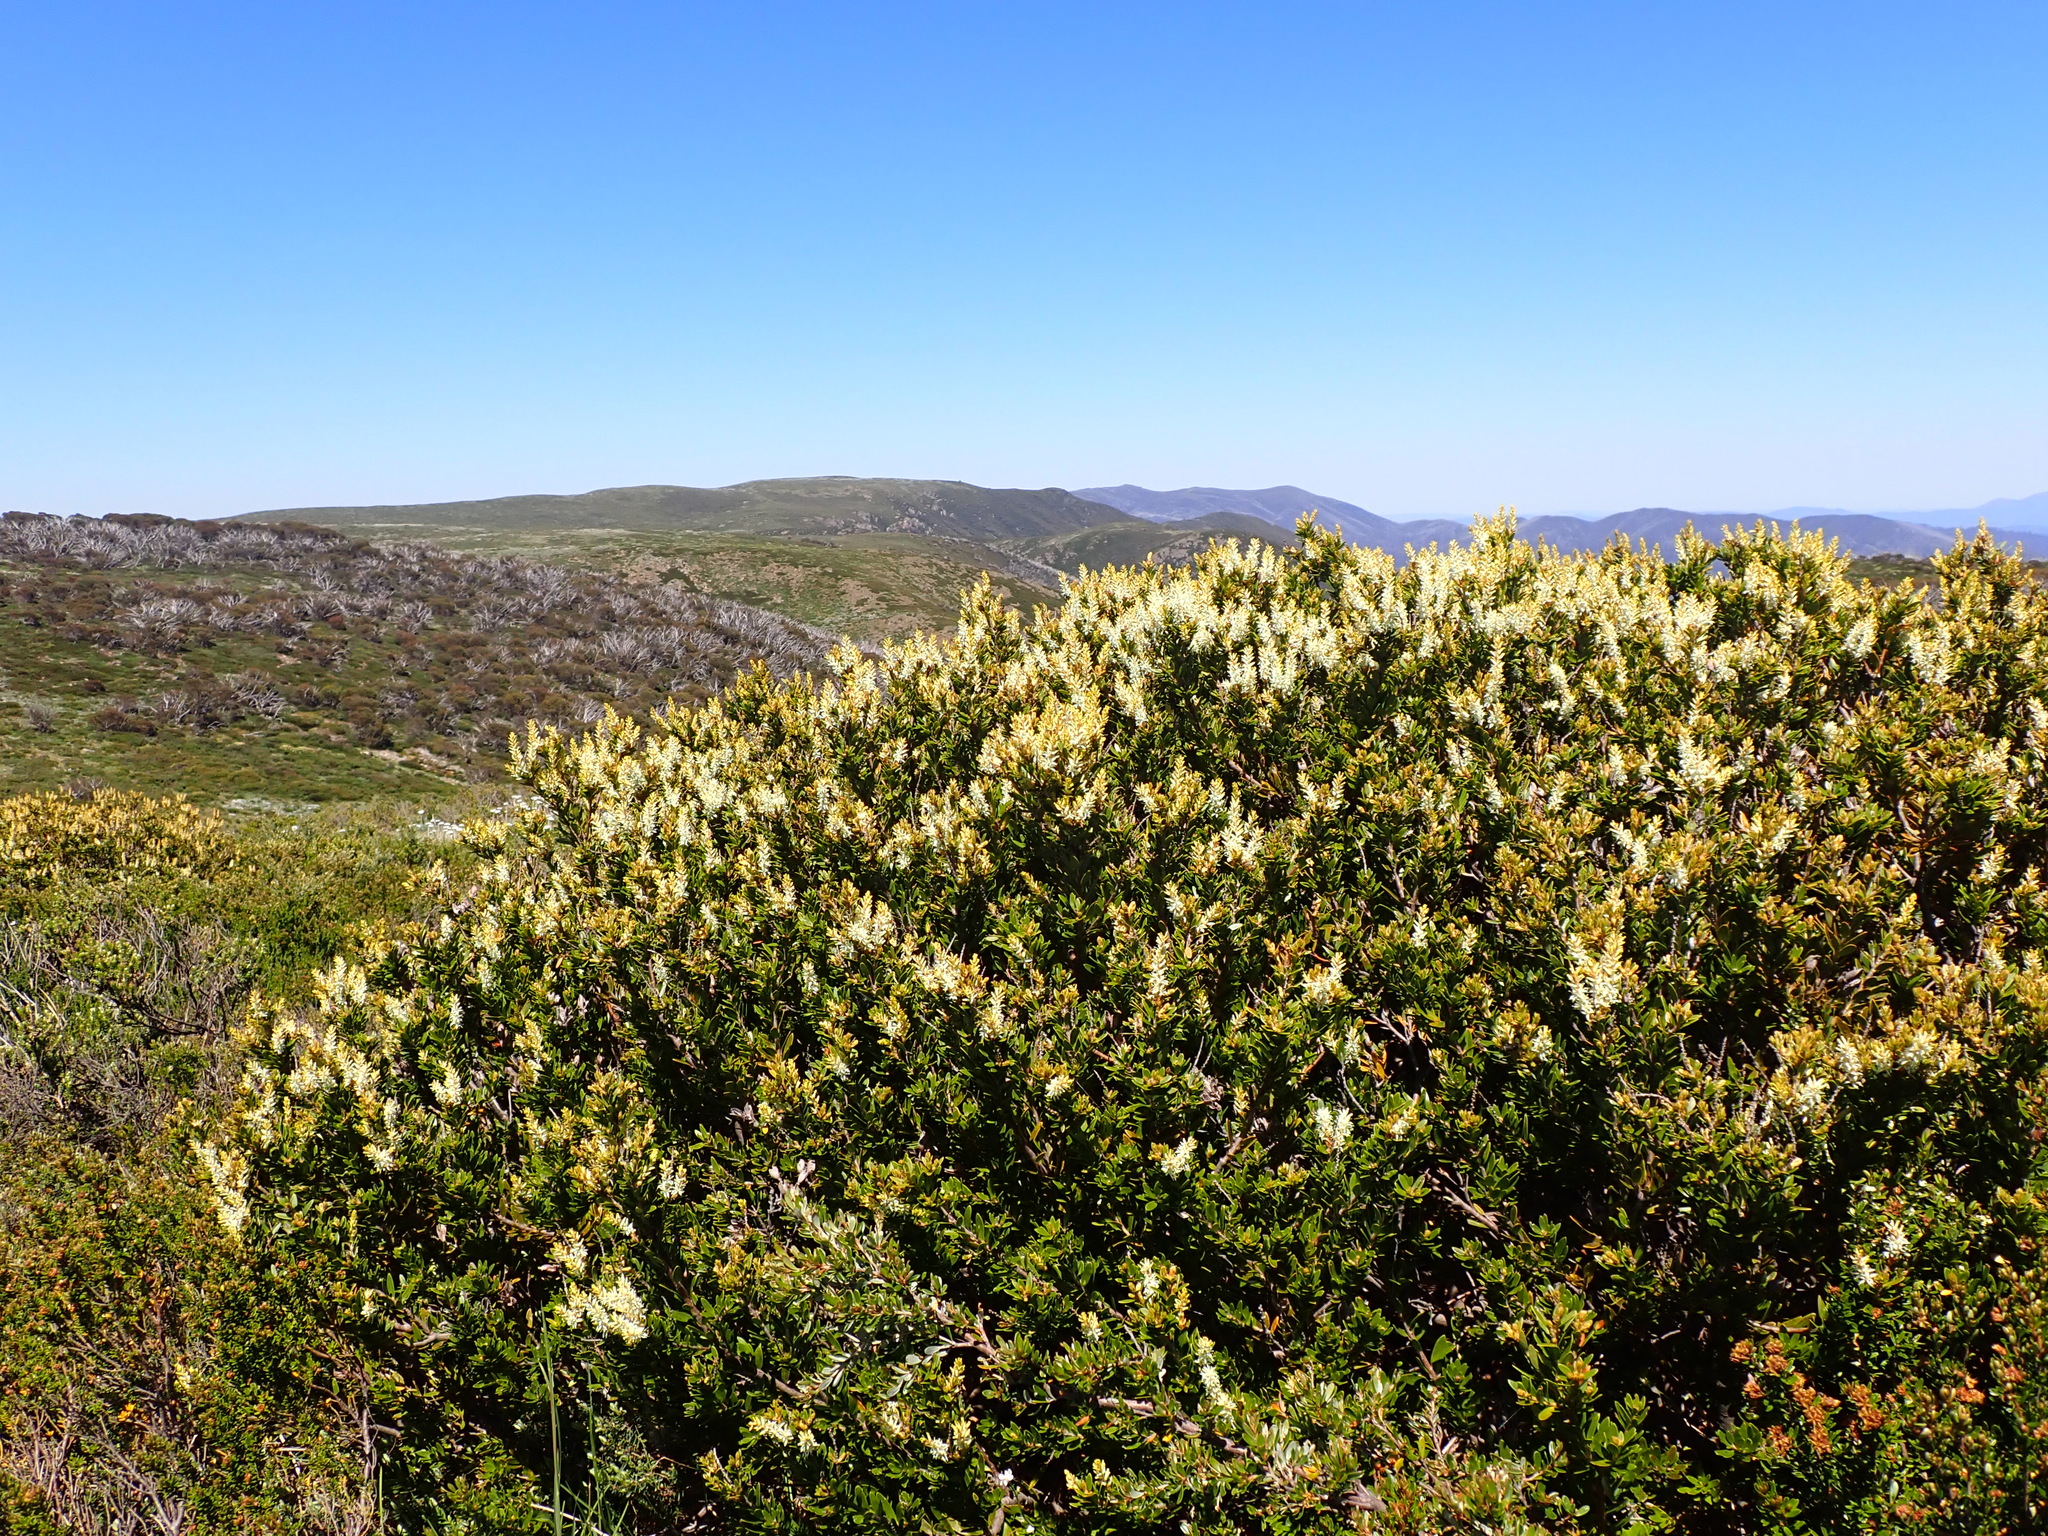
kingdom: Plantae
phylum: Tracheophyta
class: Magnoliopsida
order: Proteales
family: Proteaceae
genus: Orites
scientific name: Orites lancifolius
